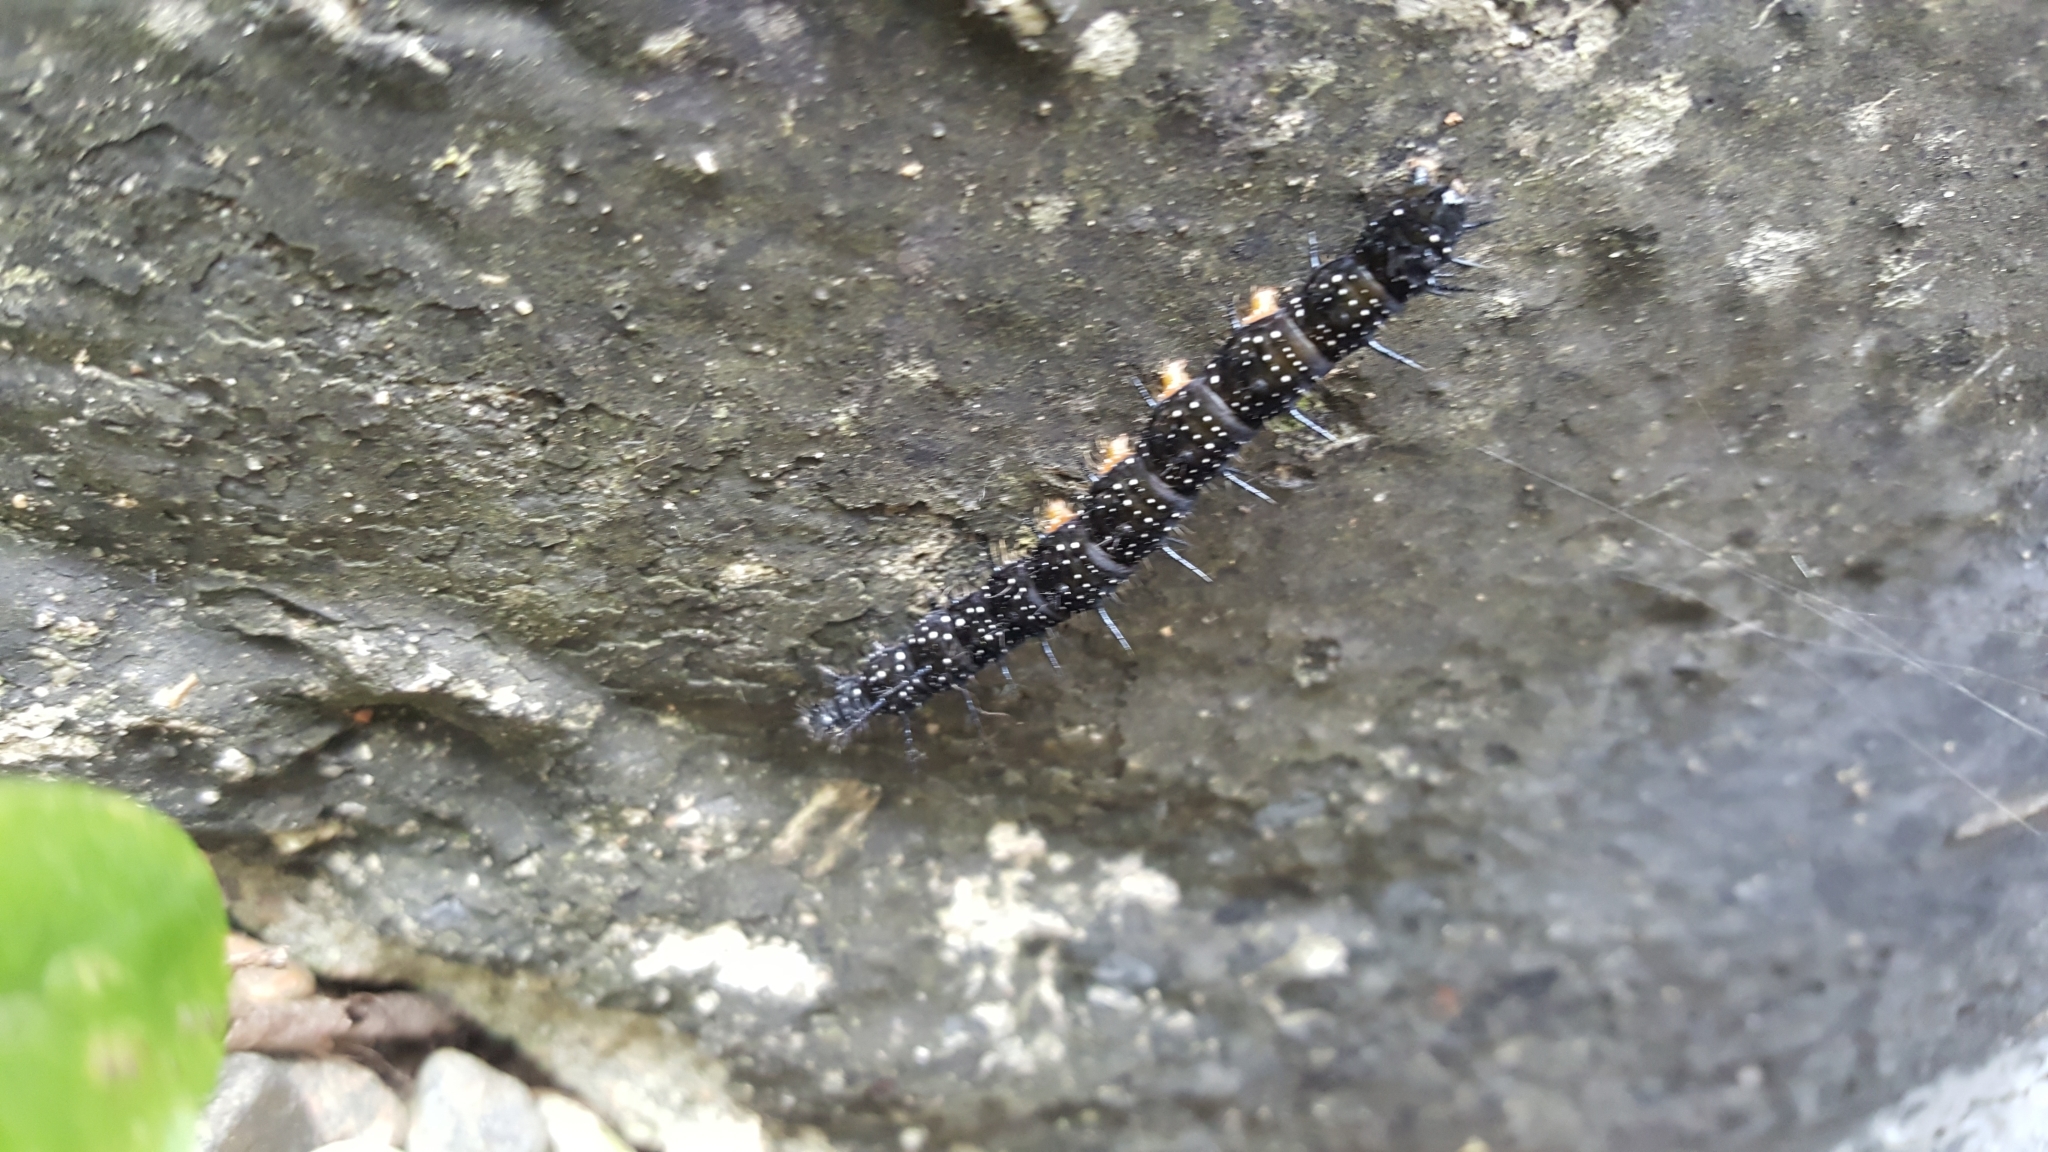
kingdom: Animalia
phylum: Arthropoda
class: Insecta
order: Lepidoptera
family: Nymphalidae
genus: Aglais
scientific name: Aglais io
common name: Peacock
